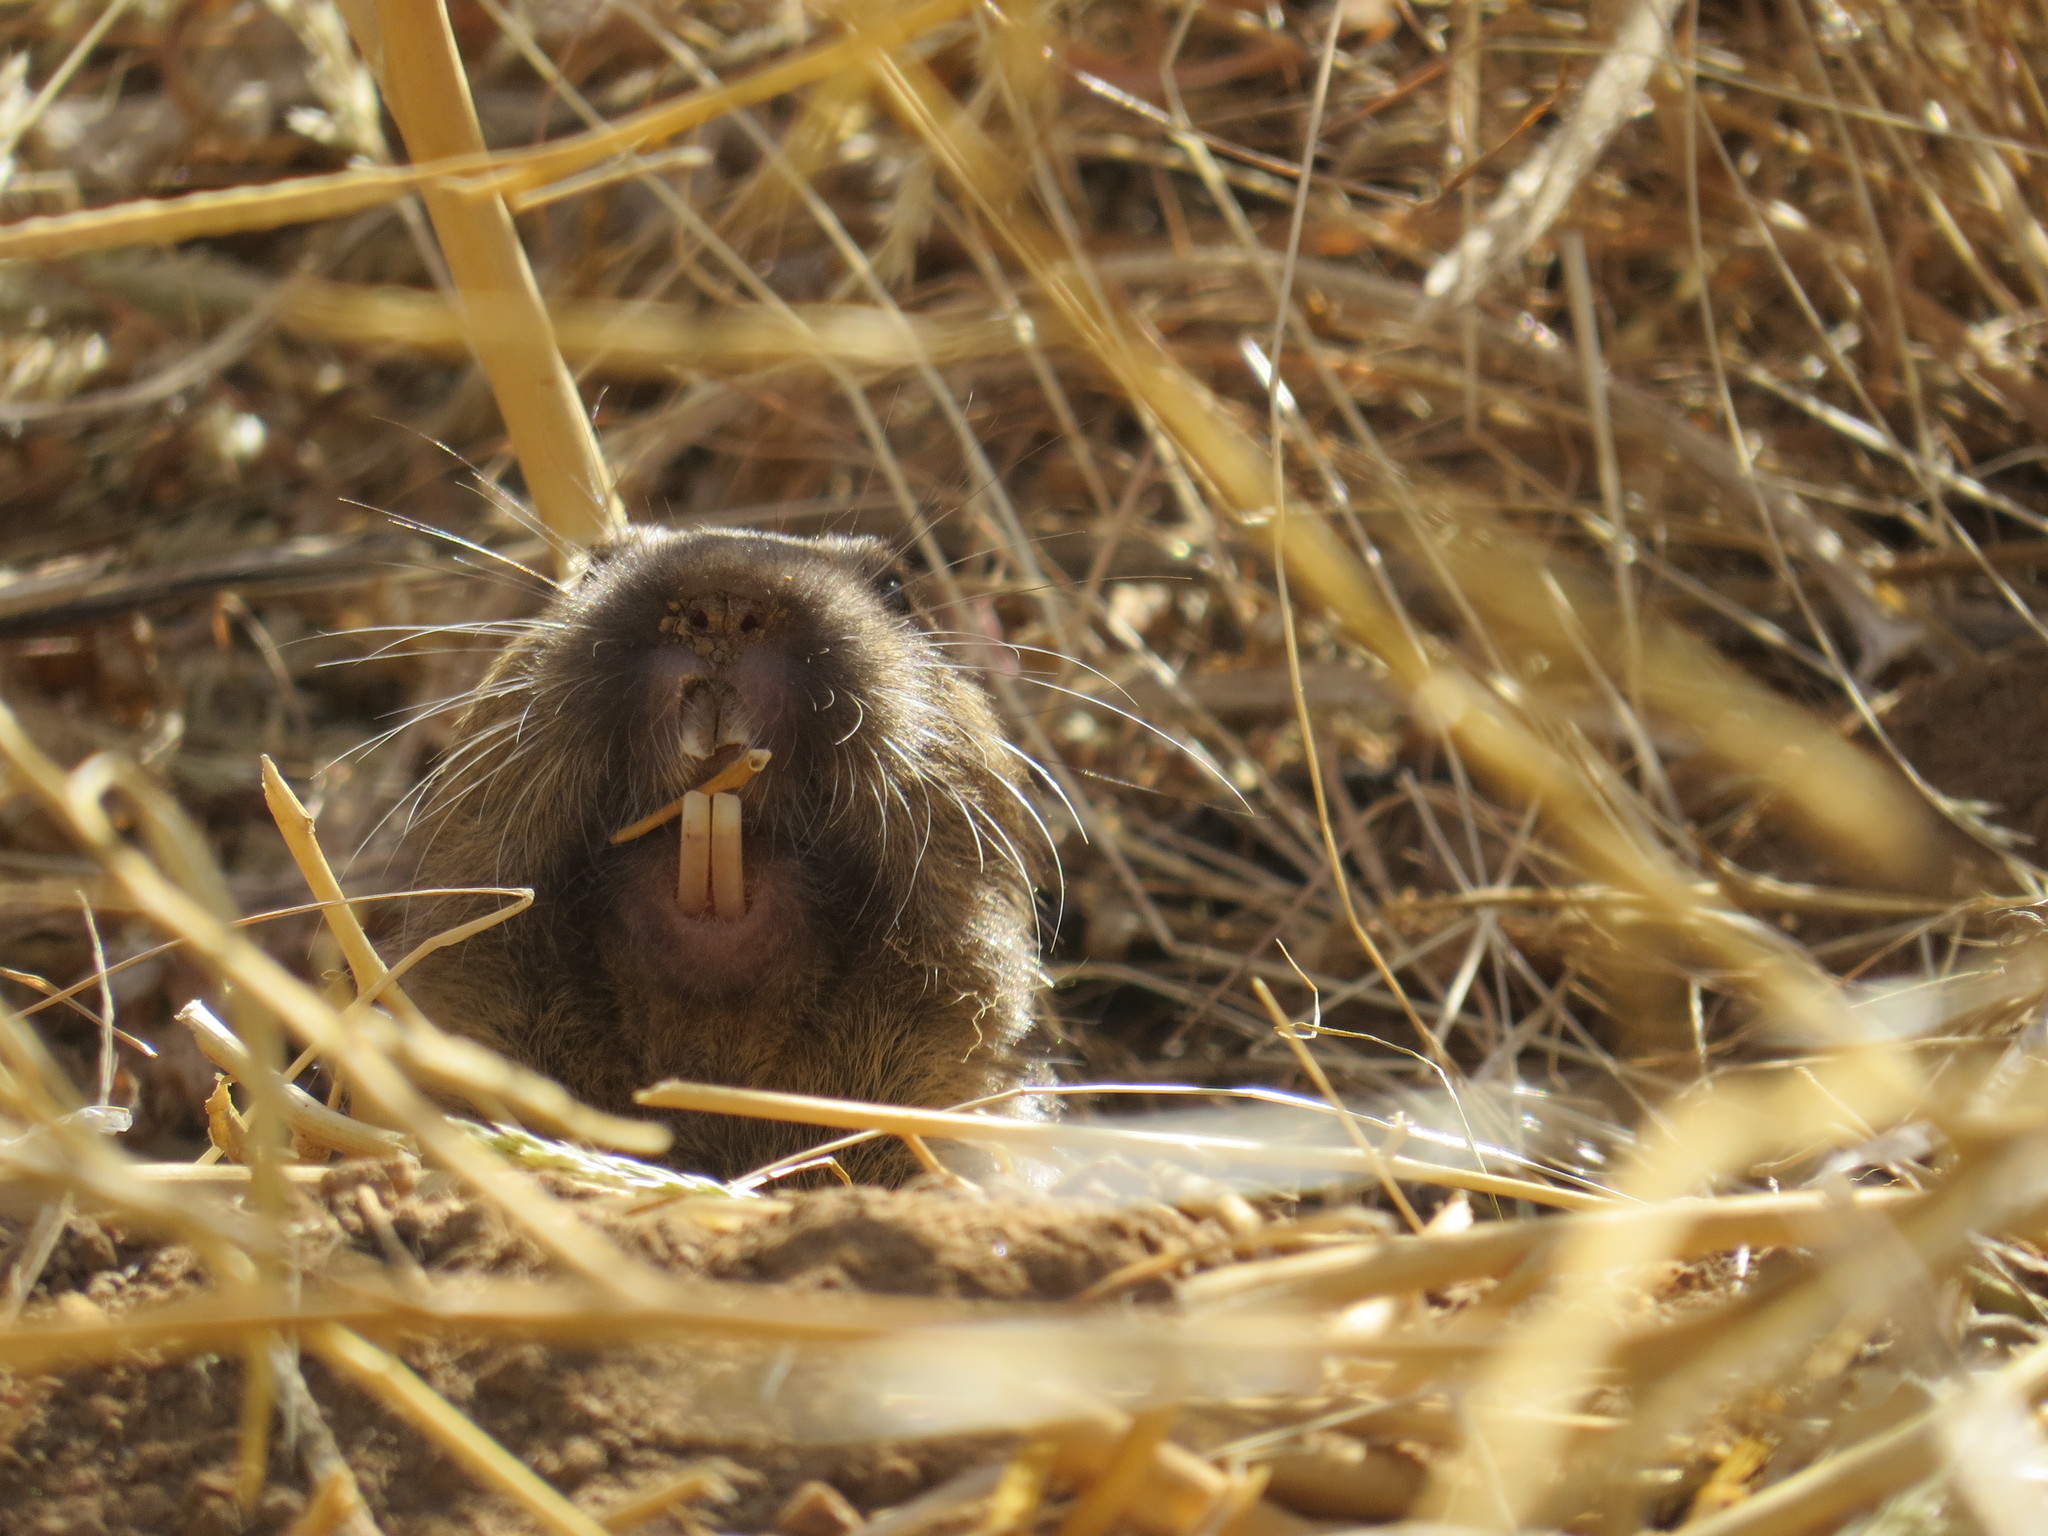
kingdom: Animalia
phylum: Chordata
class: Mammalia
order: Rodentia
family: Geomyidae
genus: Thomomys
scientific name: Thomomys bottae
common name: Botta's pocket gopher
